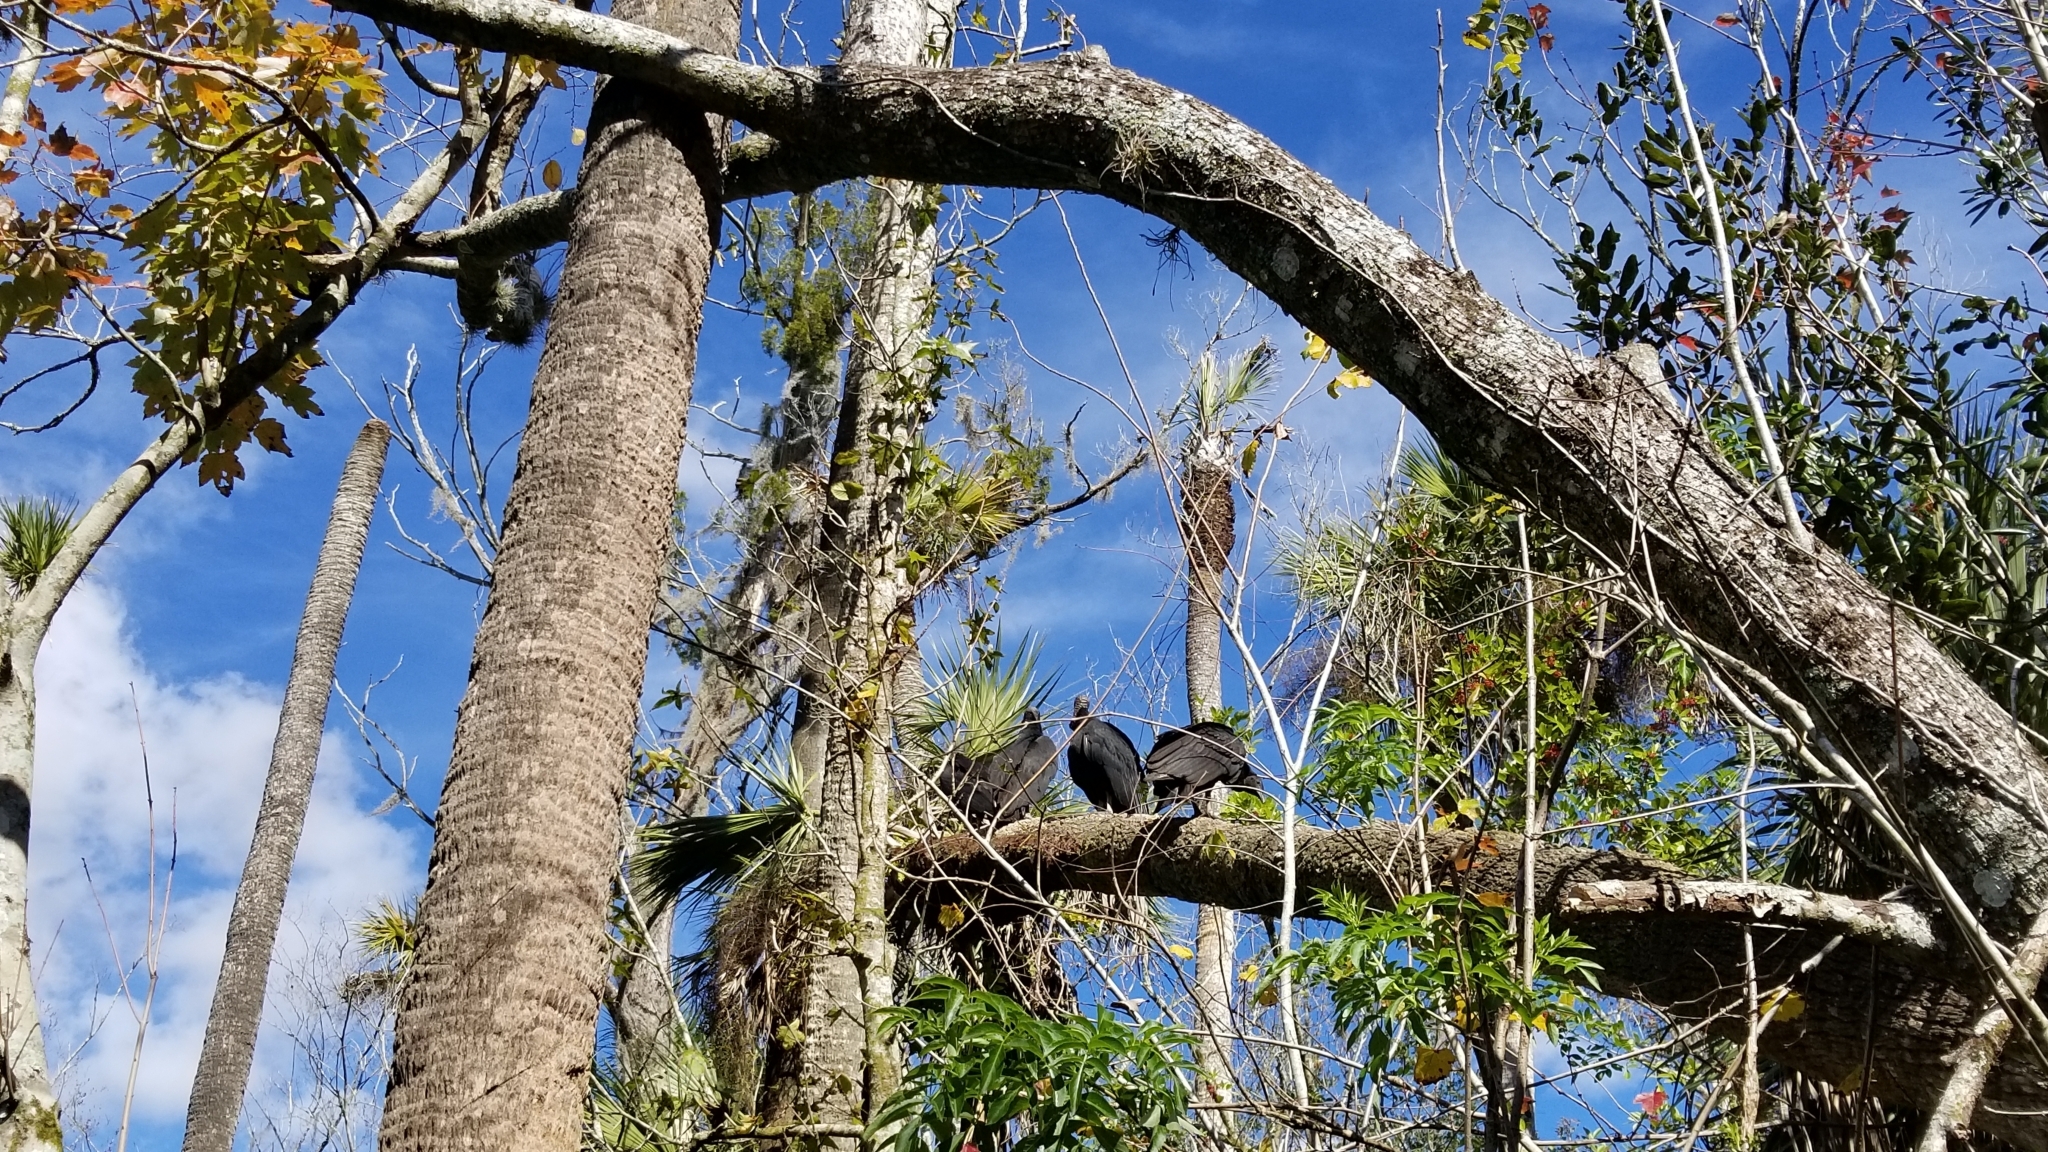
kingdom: Animalia
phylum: Chordata
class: Aves
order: Accipitriformes
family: Cathartidae
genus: Coragyps
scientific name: Coragyps atratus
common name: Black vulture
